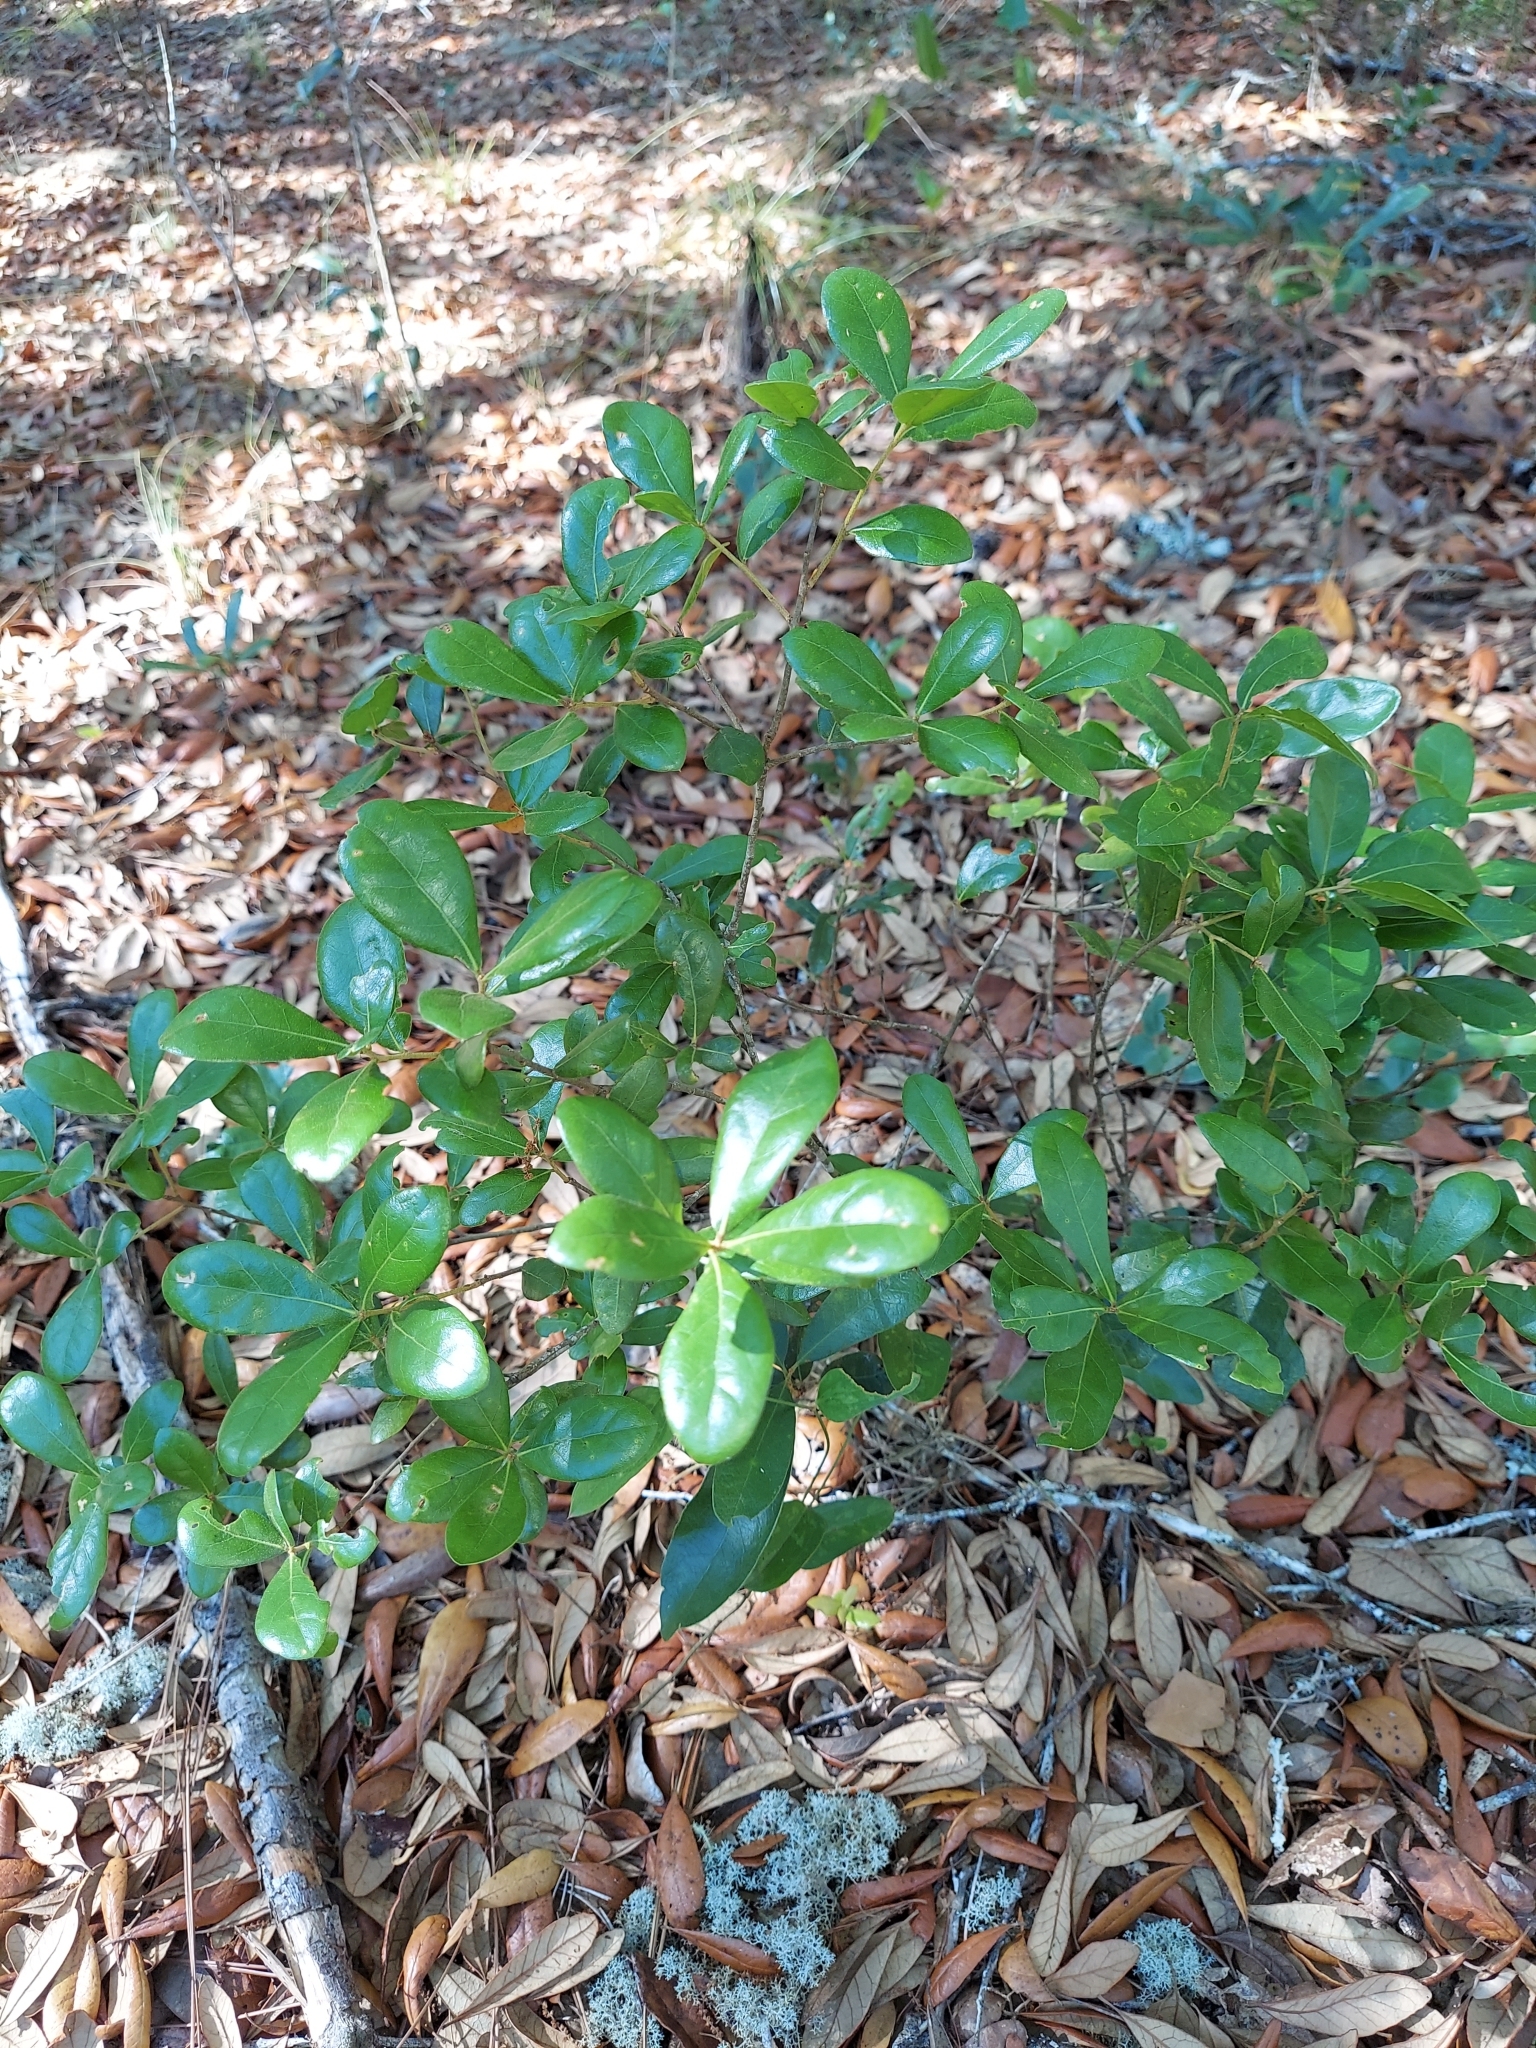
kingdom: Plantae
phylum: Tracheophyta
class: Magnoliopsida
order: Fagales
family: Fagaceae
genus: Quercus
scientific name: Quercus myrtifolia
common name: Myrtle oak
